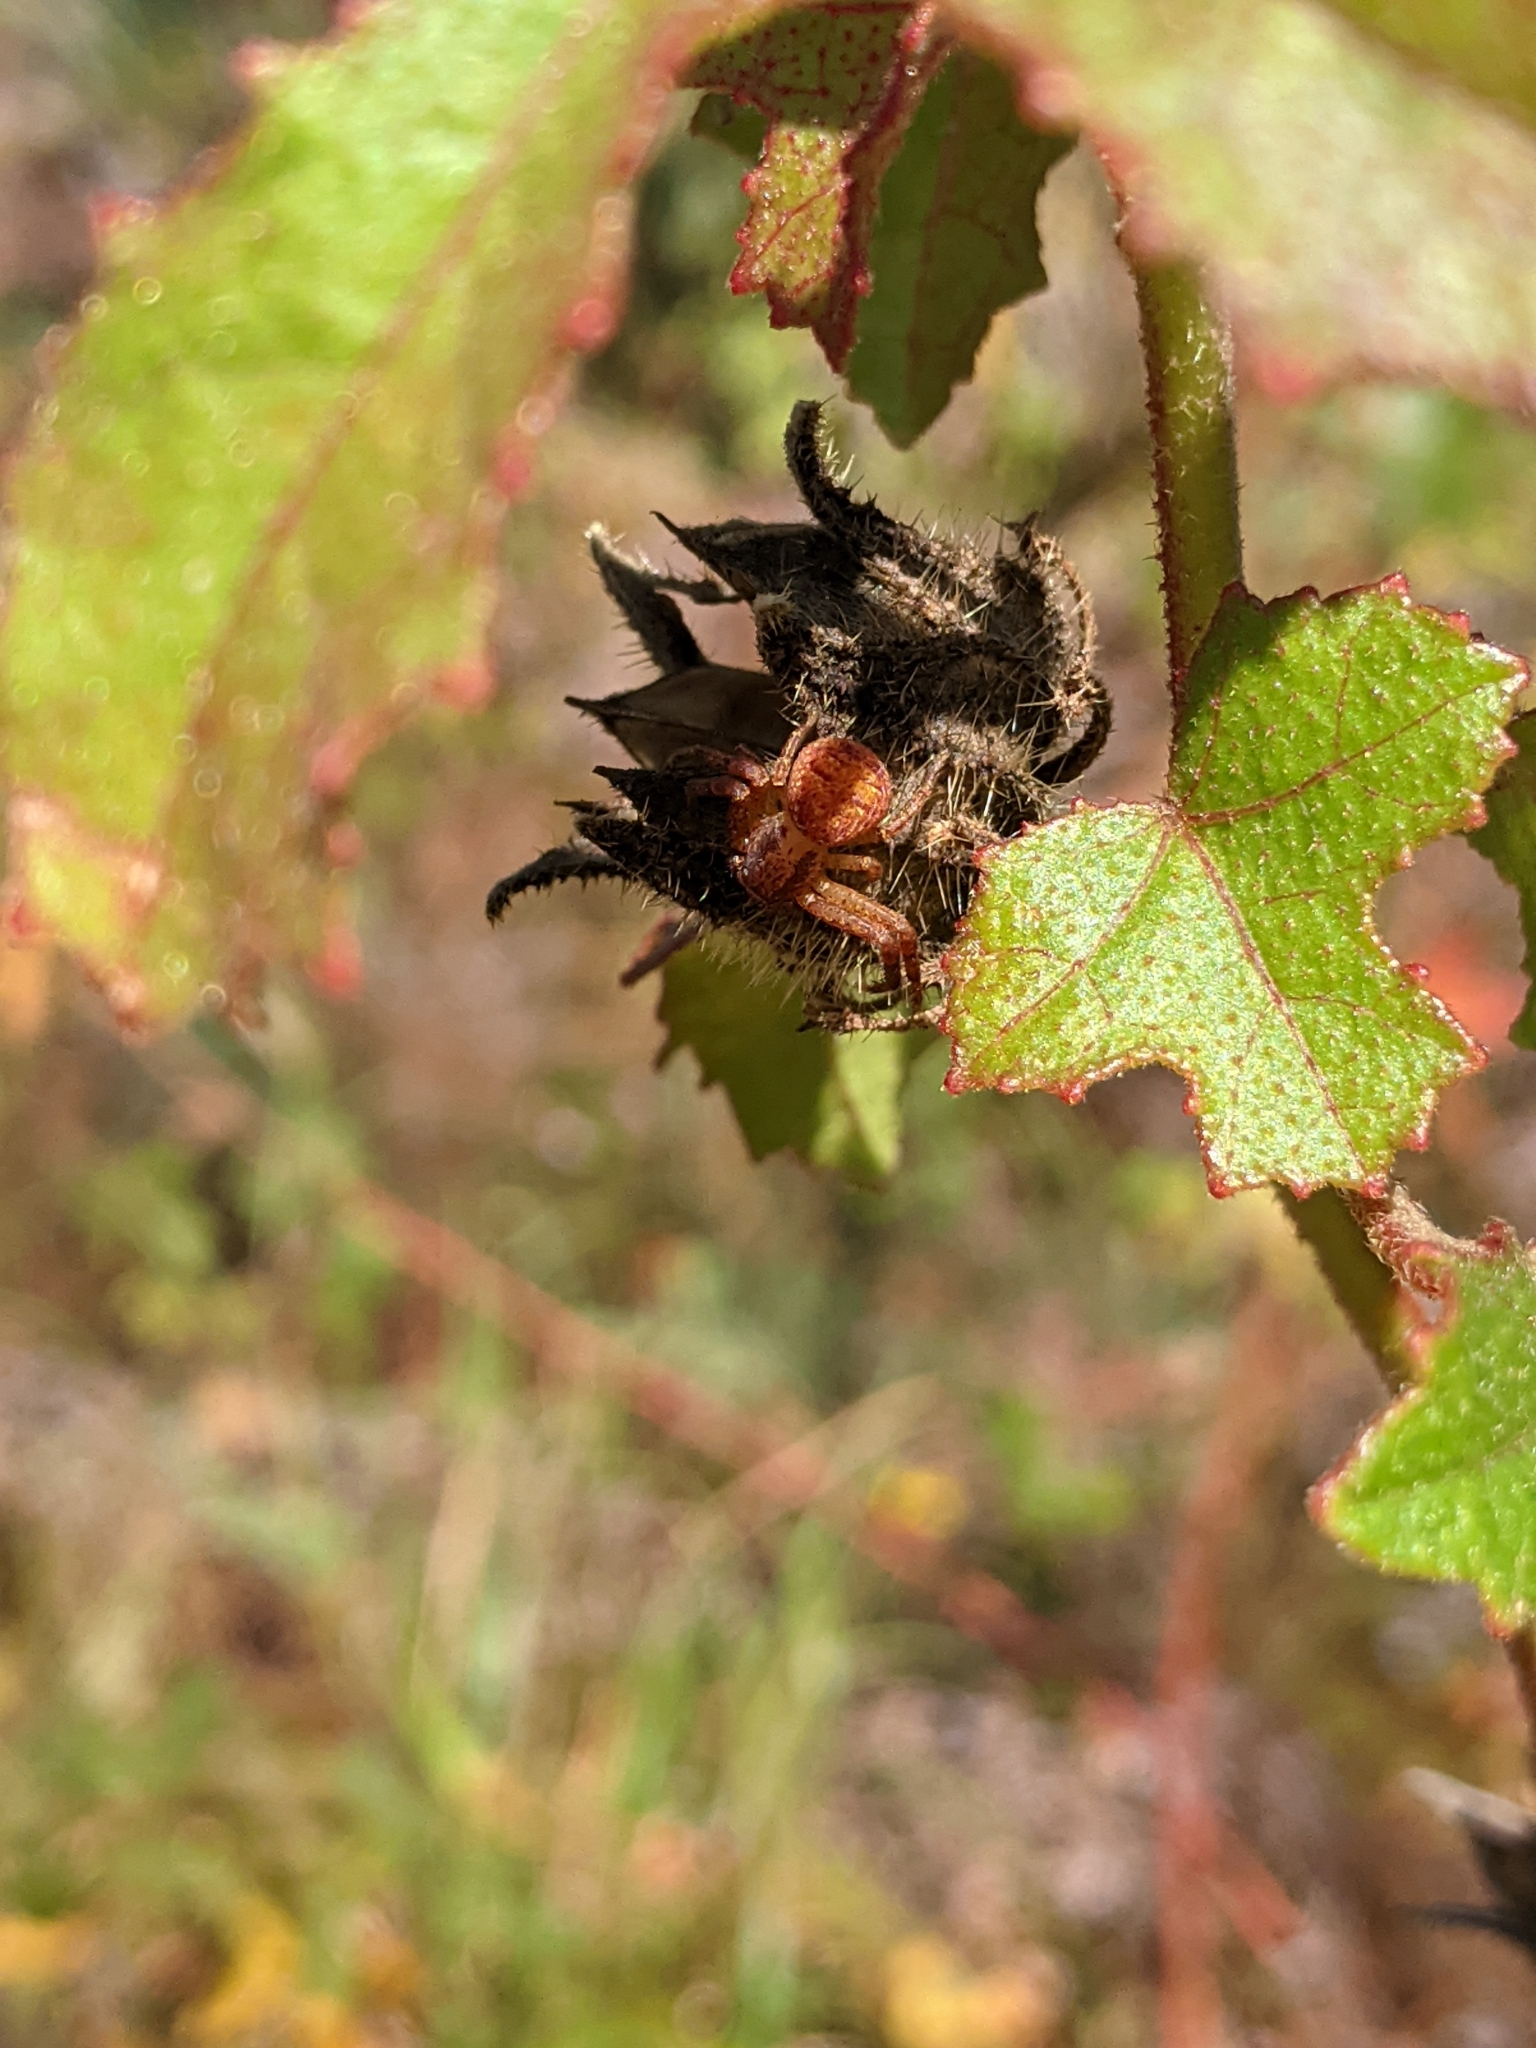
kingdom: Plantae
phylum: Tracheophyta
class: Magnoliopsida
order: Malvales
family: Malvaceae
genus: Hibiscus
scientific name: Hibiscus aculeatus
